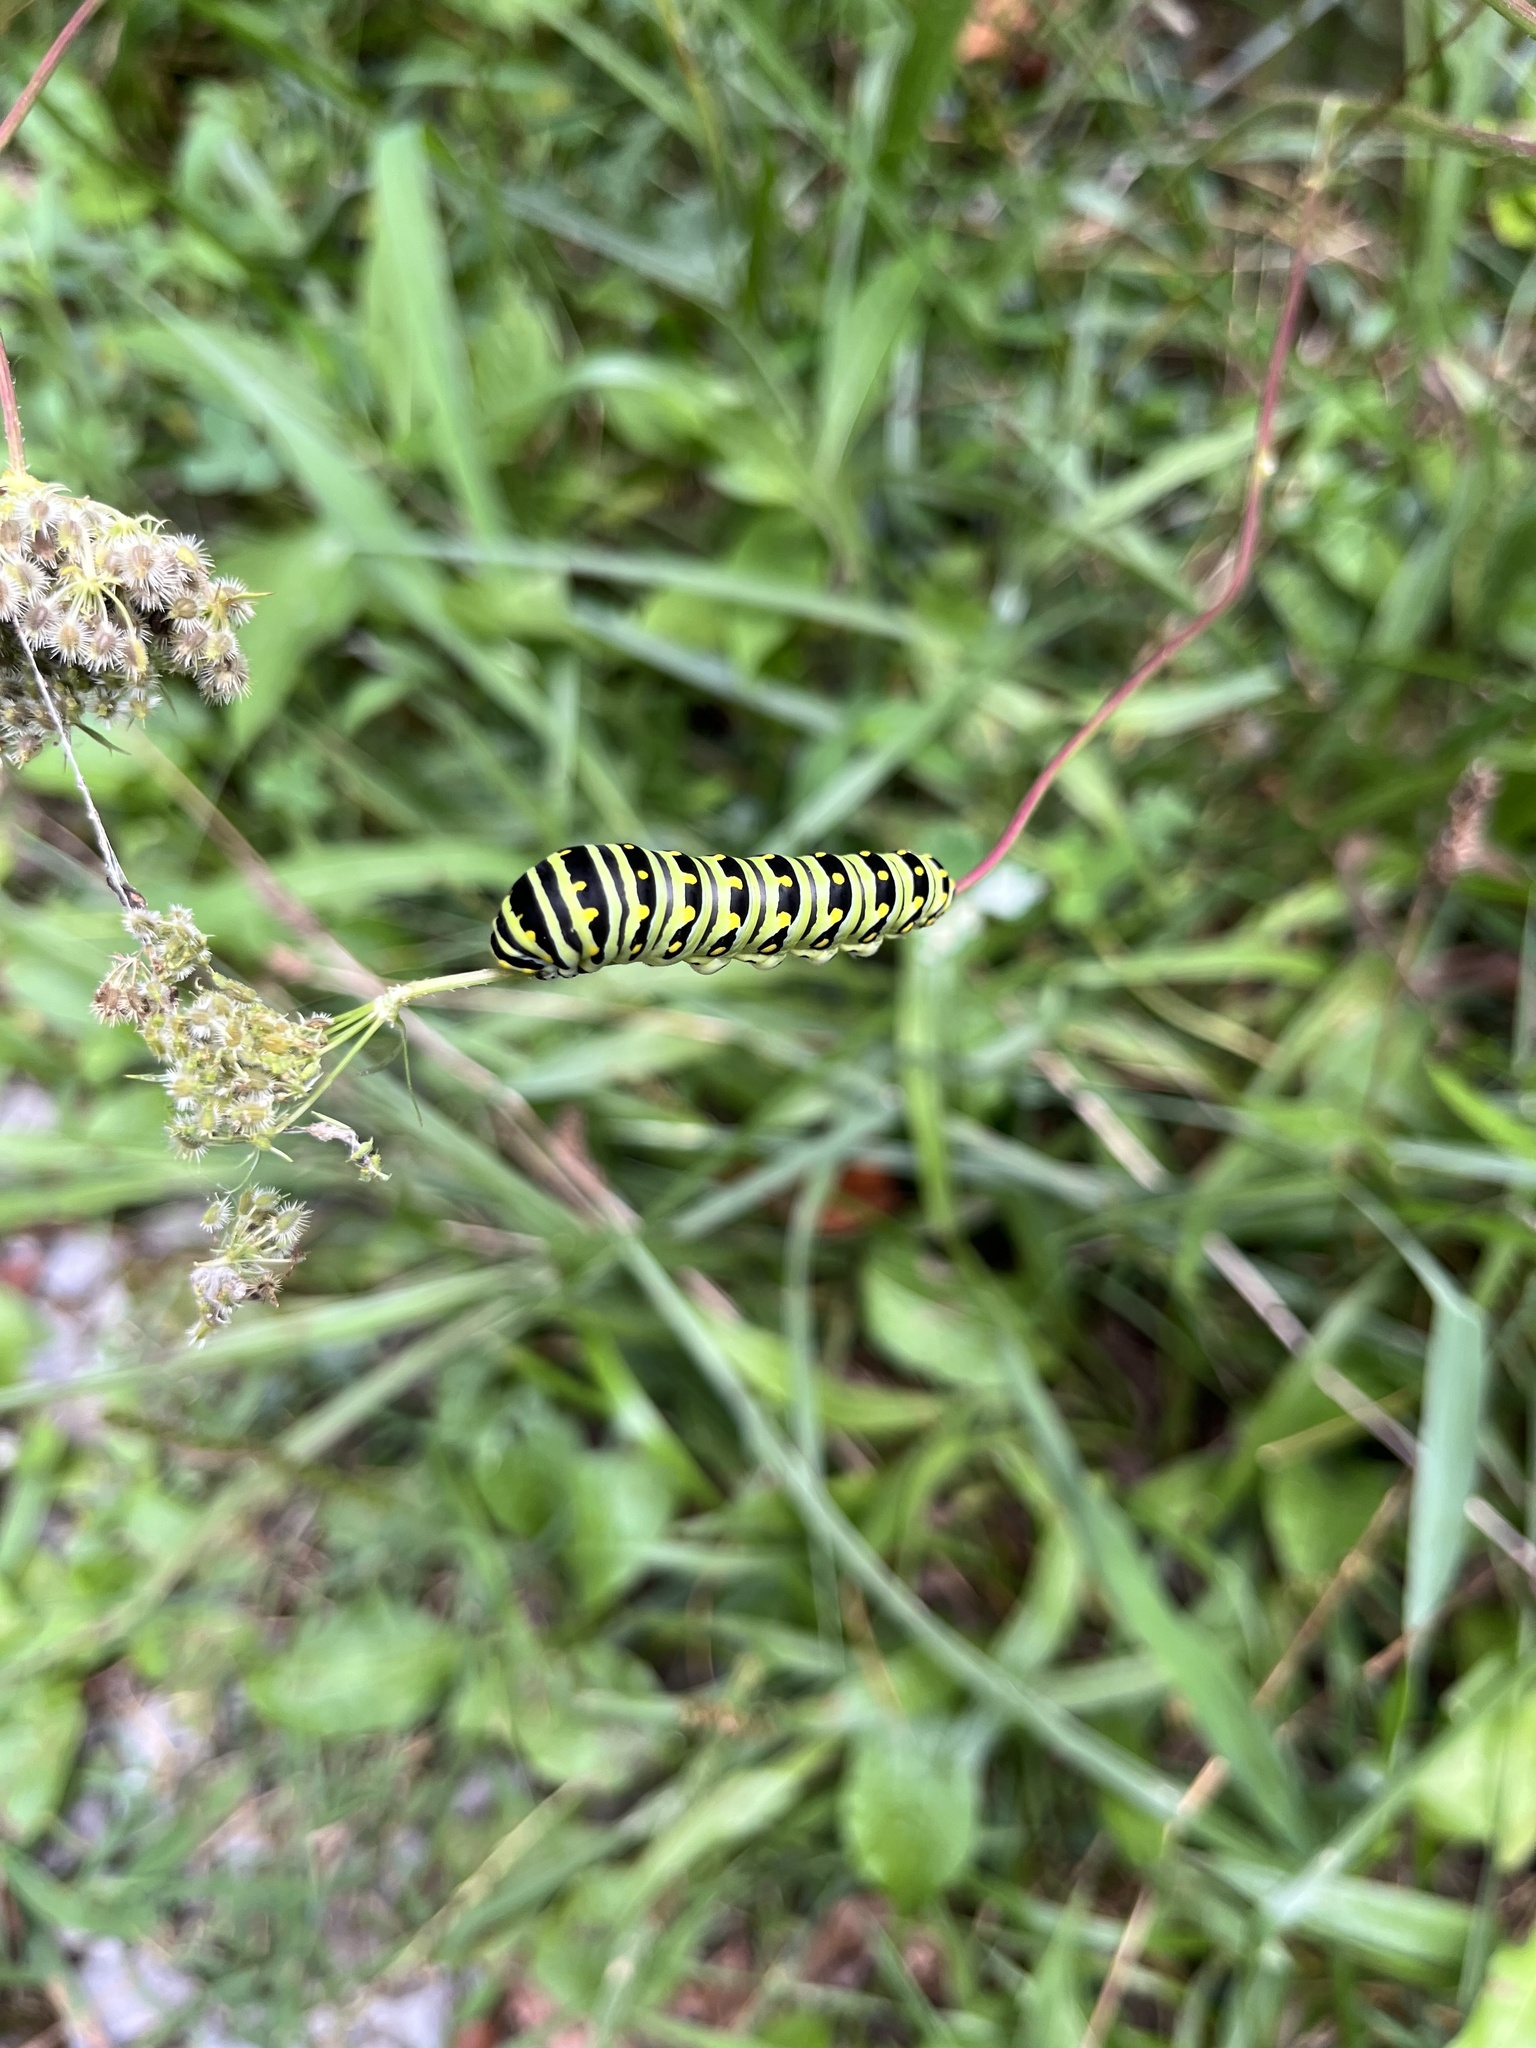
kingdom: Animalia
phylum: Arthropoda
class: Insecta
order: Lepidoptera
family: Papilionidae
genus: Papilio
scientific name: Papilio polyxenes
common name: Black swallowtail
